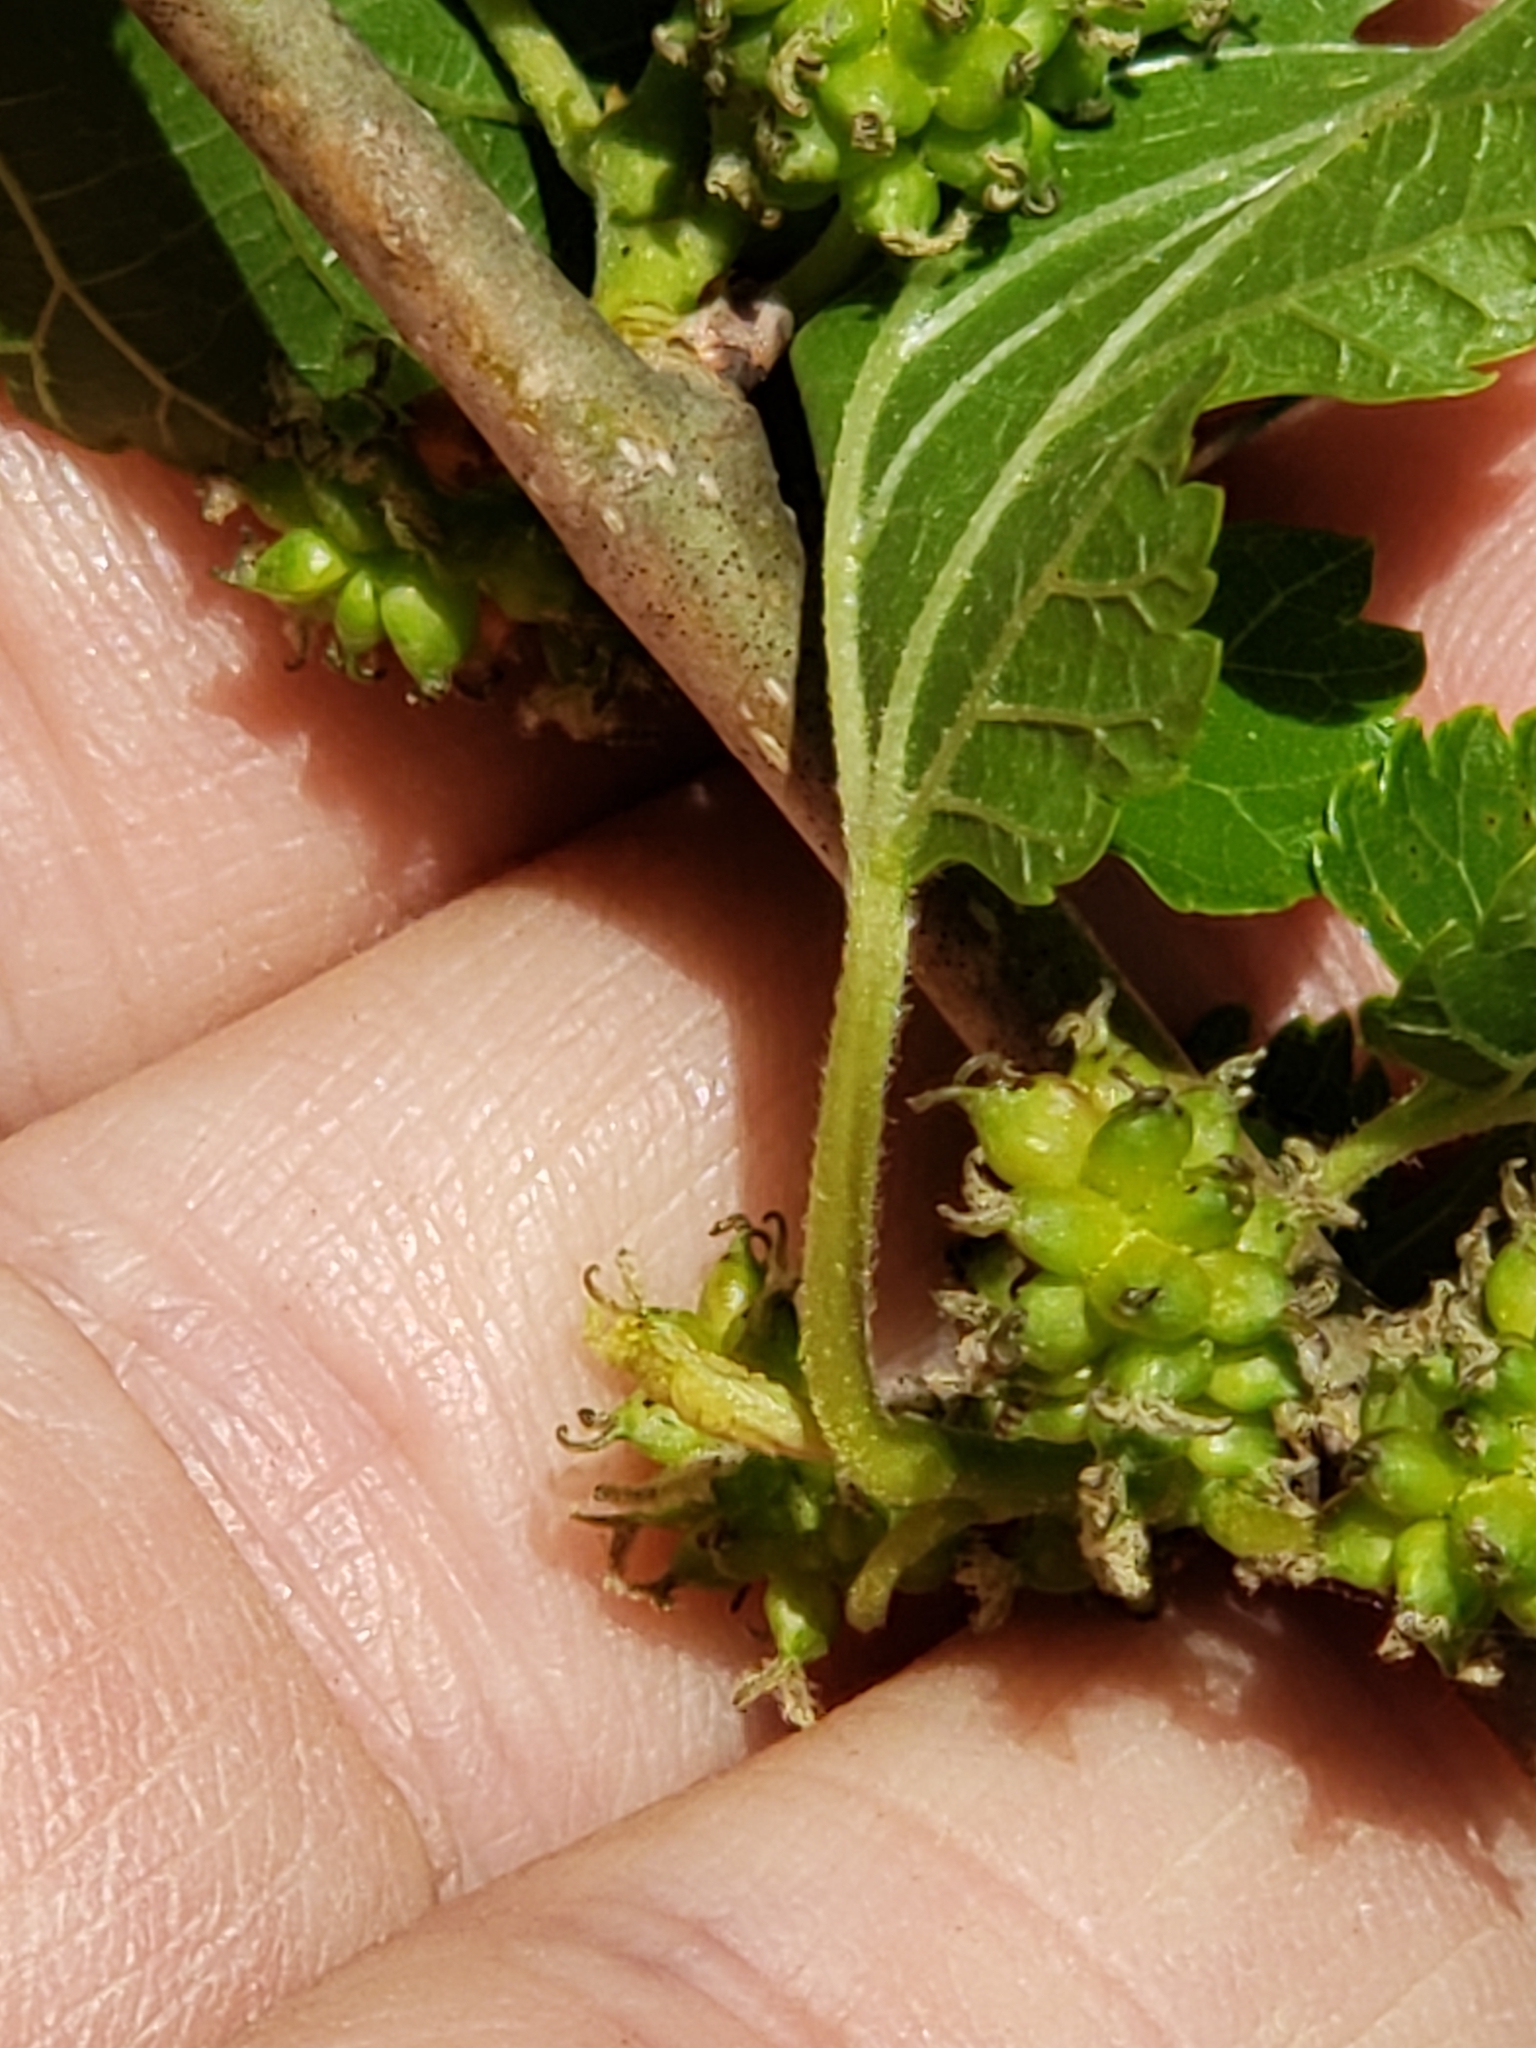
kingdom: Plantae
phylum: Tracheophyta
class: Magnoliopsida
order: Lamiales
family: Mazaceae
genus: Mazus
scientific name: Mazus pumilus
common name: Japanese mazus
